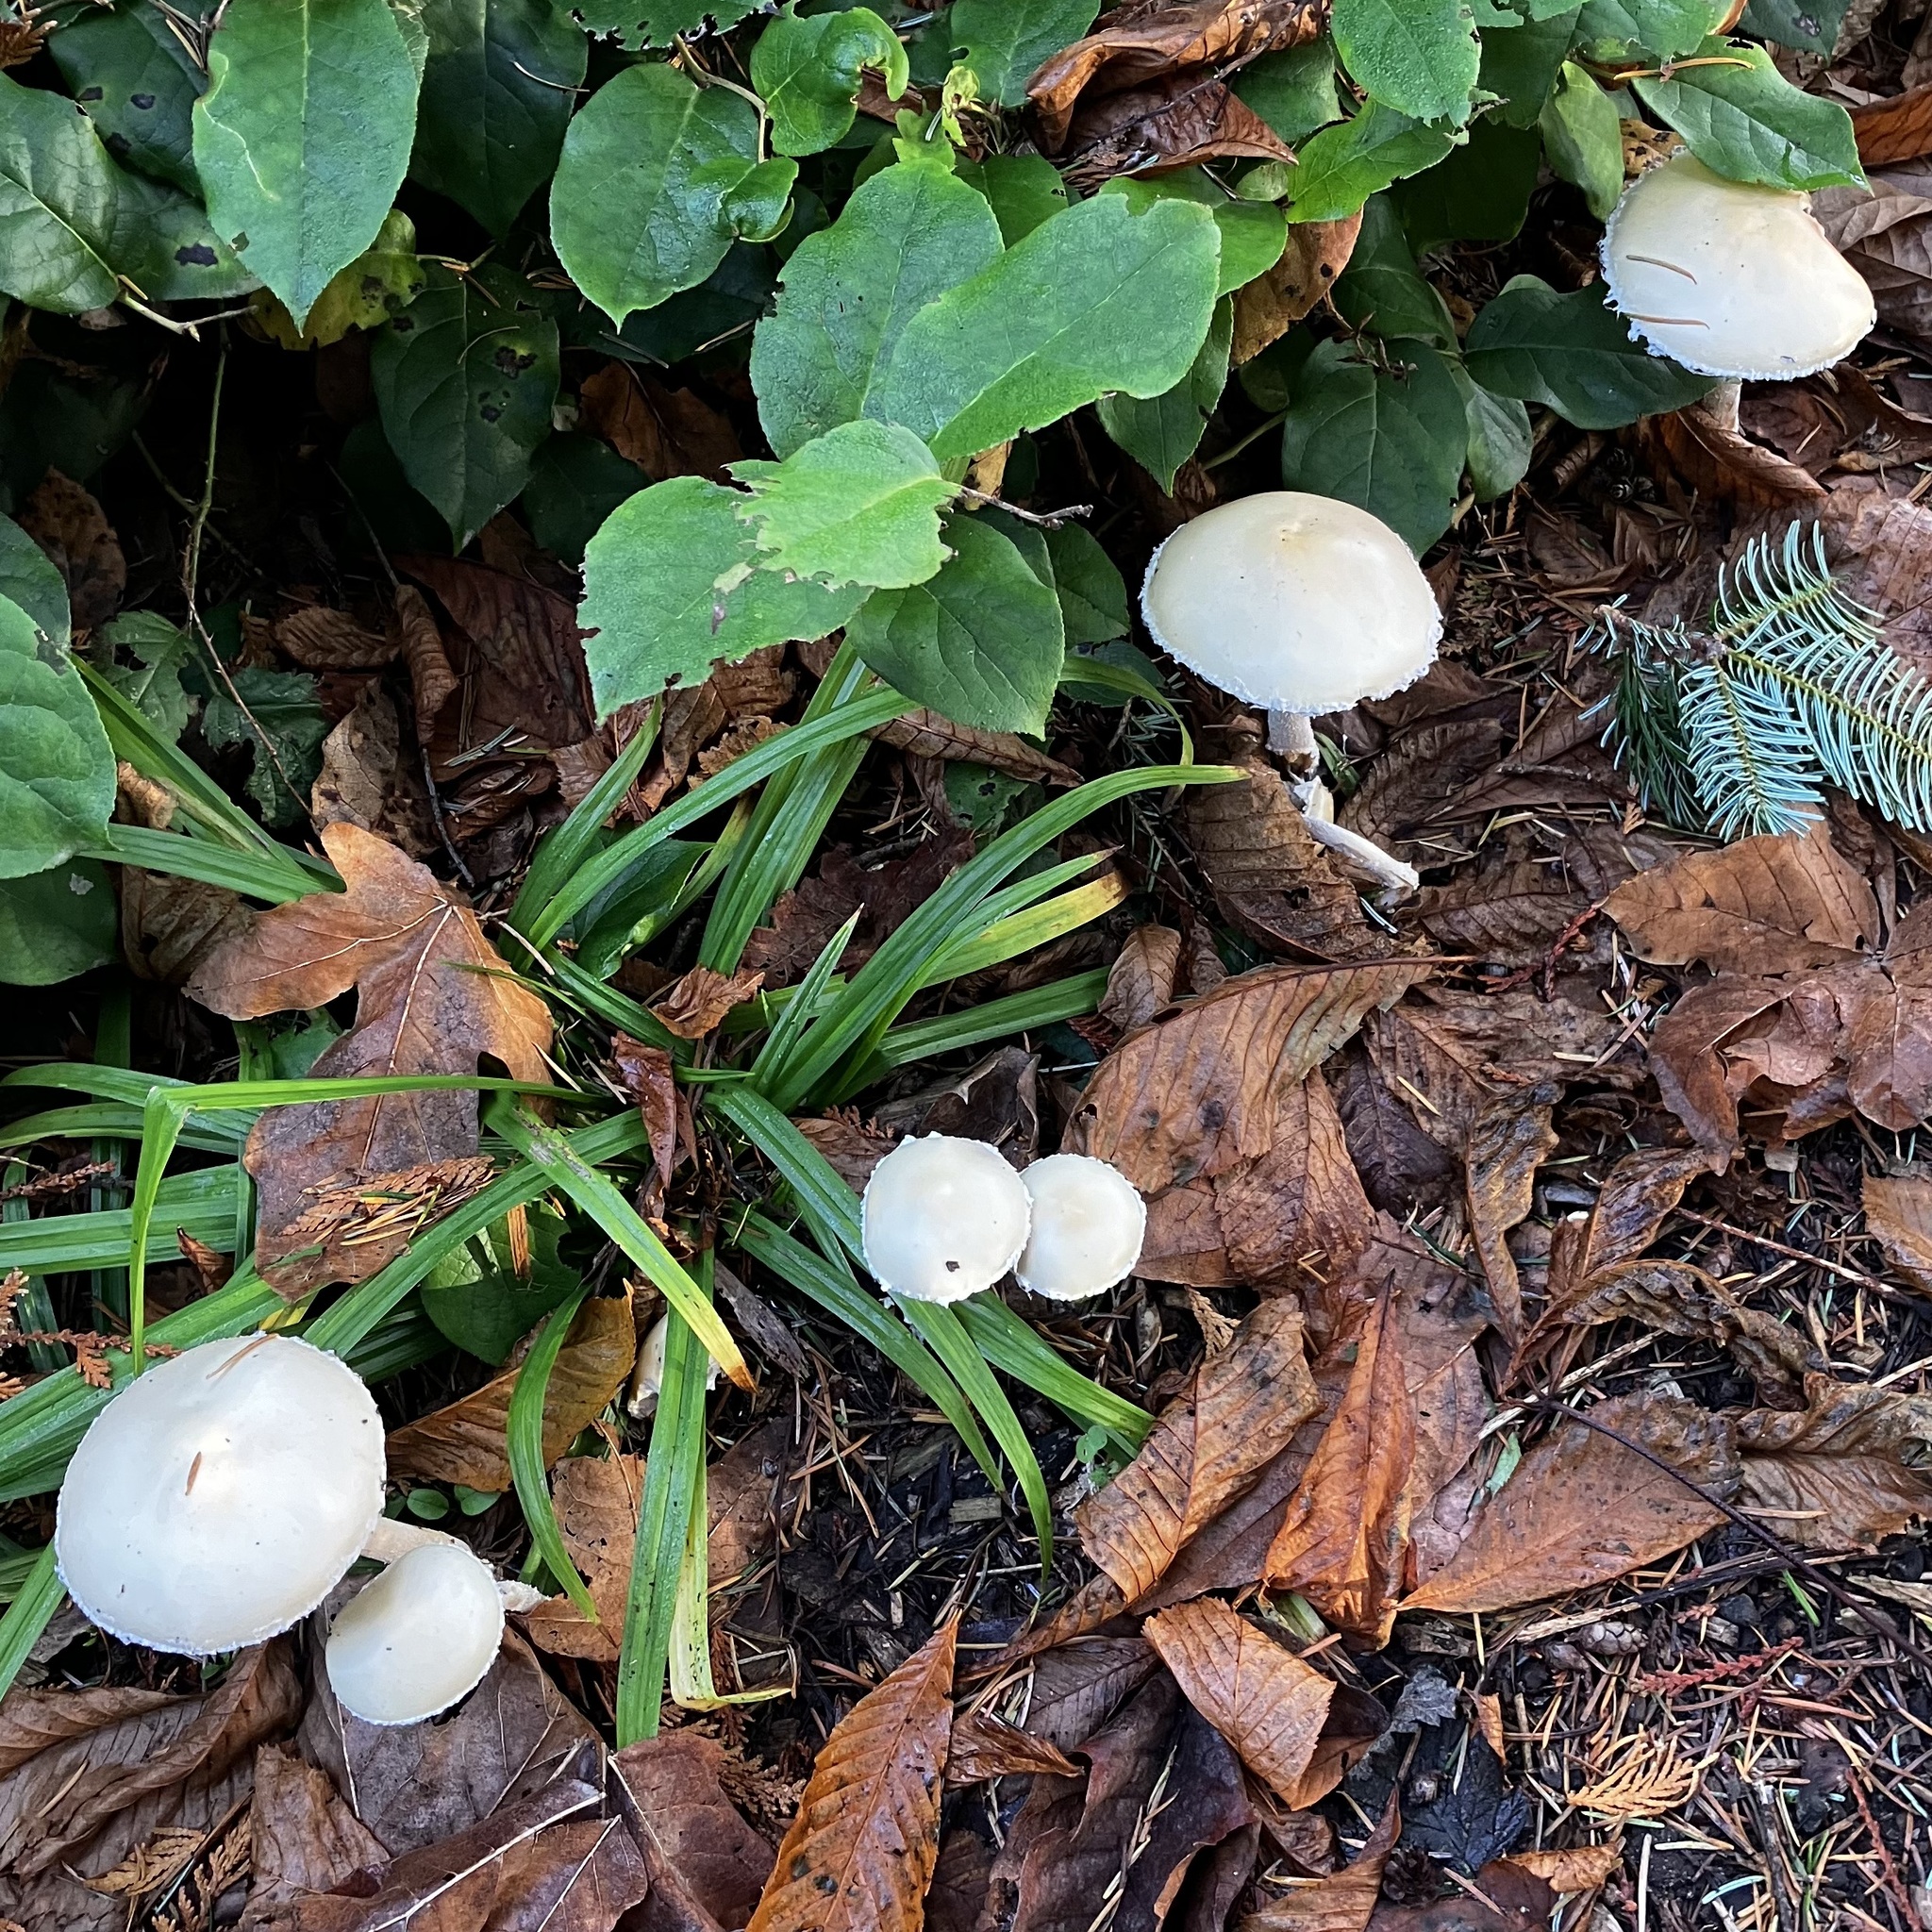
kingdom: Fungi
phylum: Basidiomycota
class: Agaricomycetes
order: Agaricales
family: Strophariaceae
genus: Stropharia
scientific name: Stropharia ambigua
